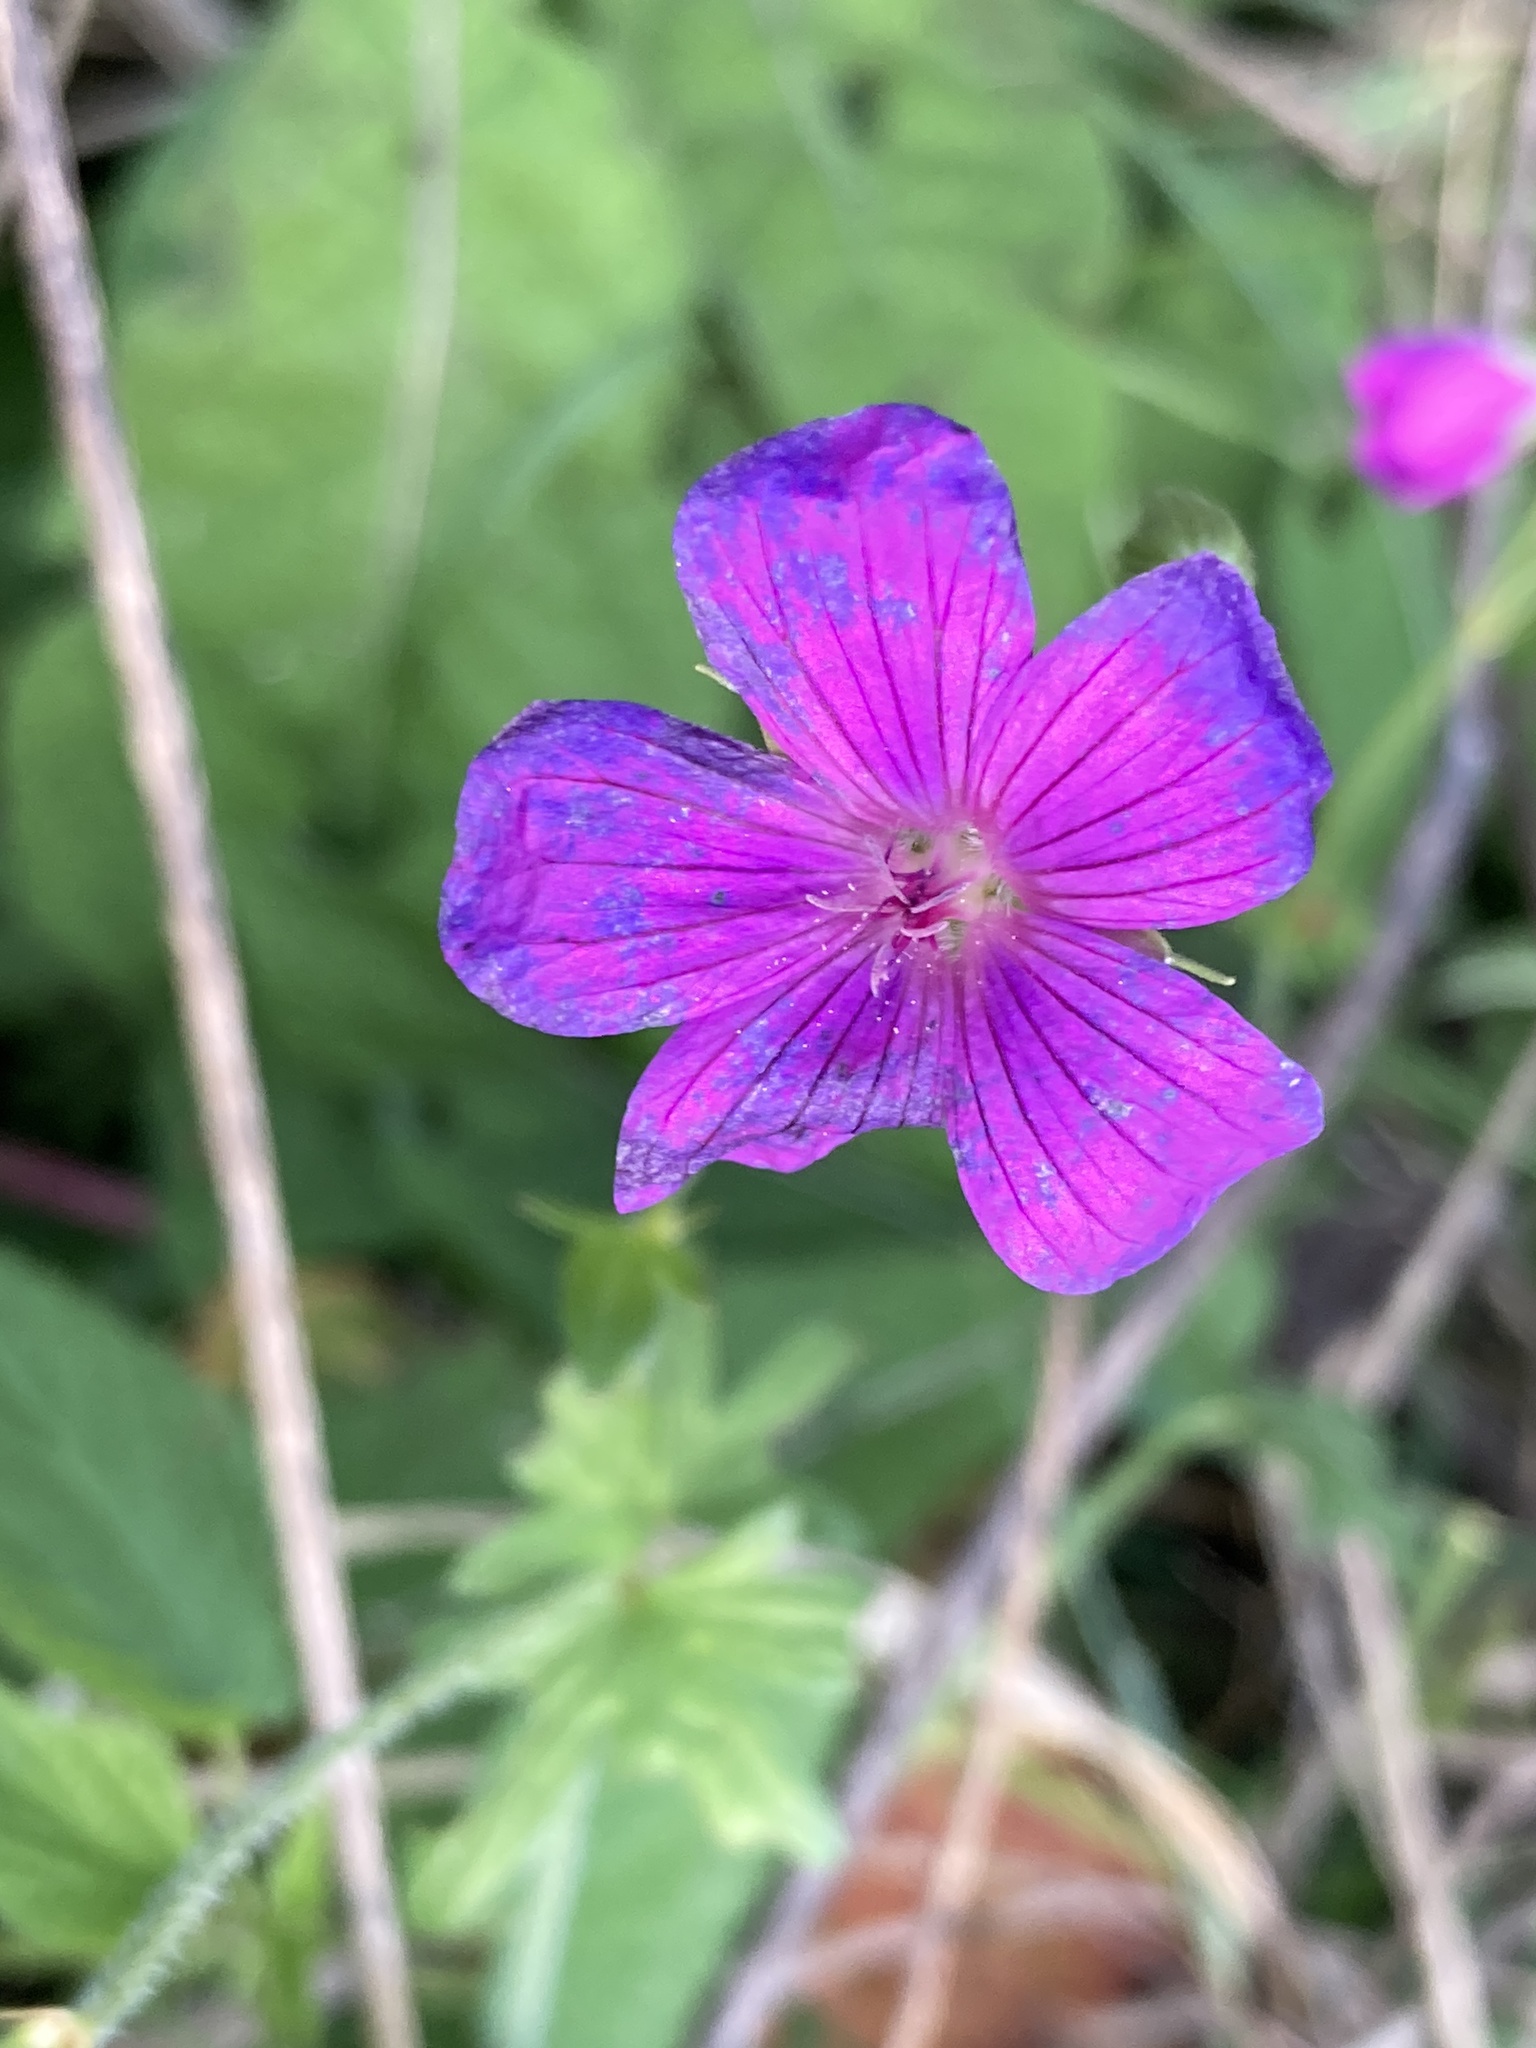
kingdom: Plantae
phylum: Tracheophyta
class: Magnoliopsida
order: Geraniales
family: Geraniaceae
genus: Geranium
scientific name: Geranium palustre
